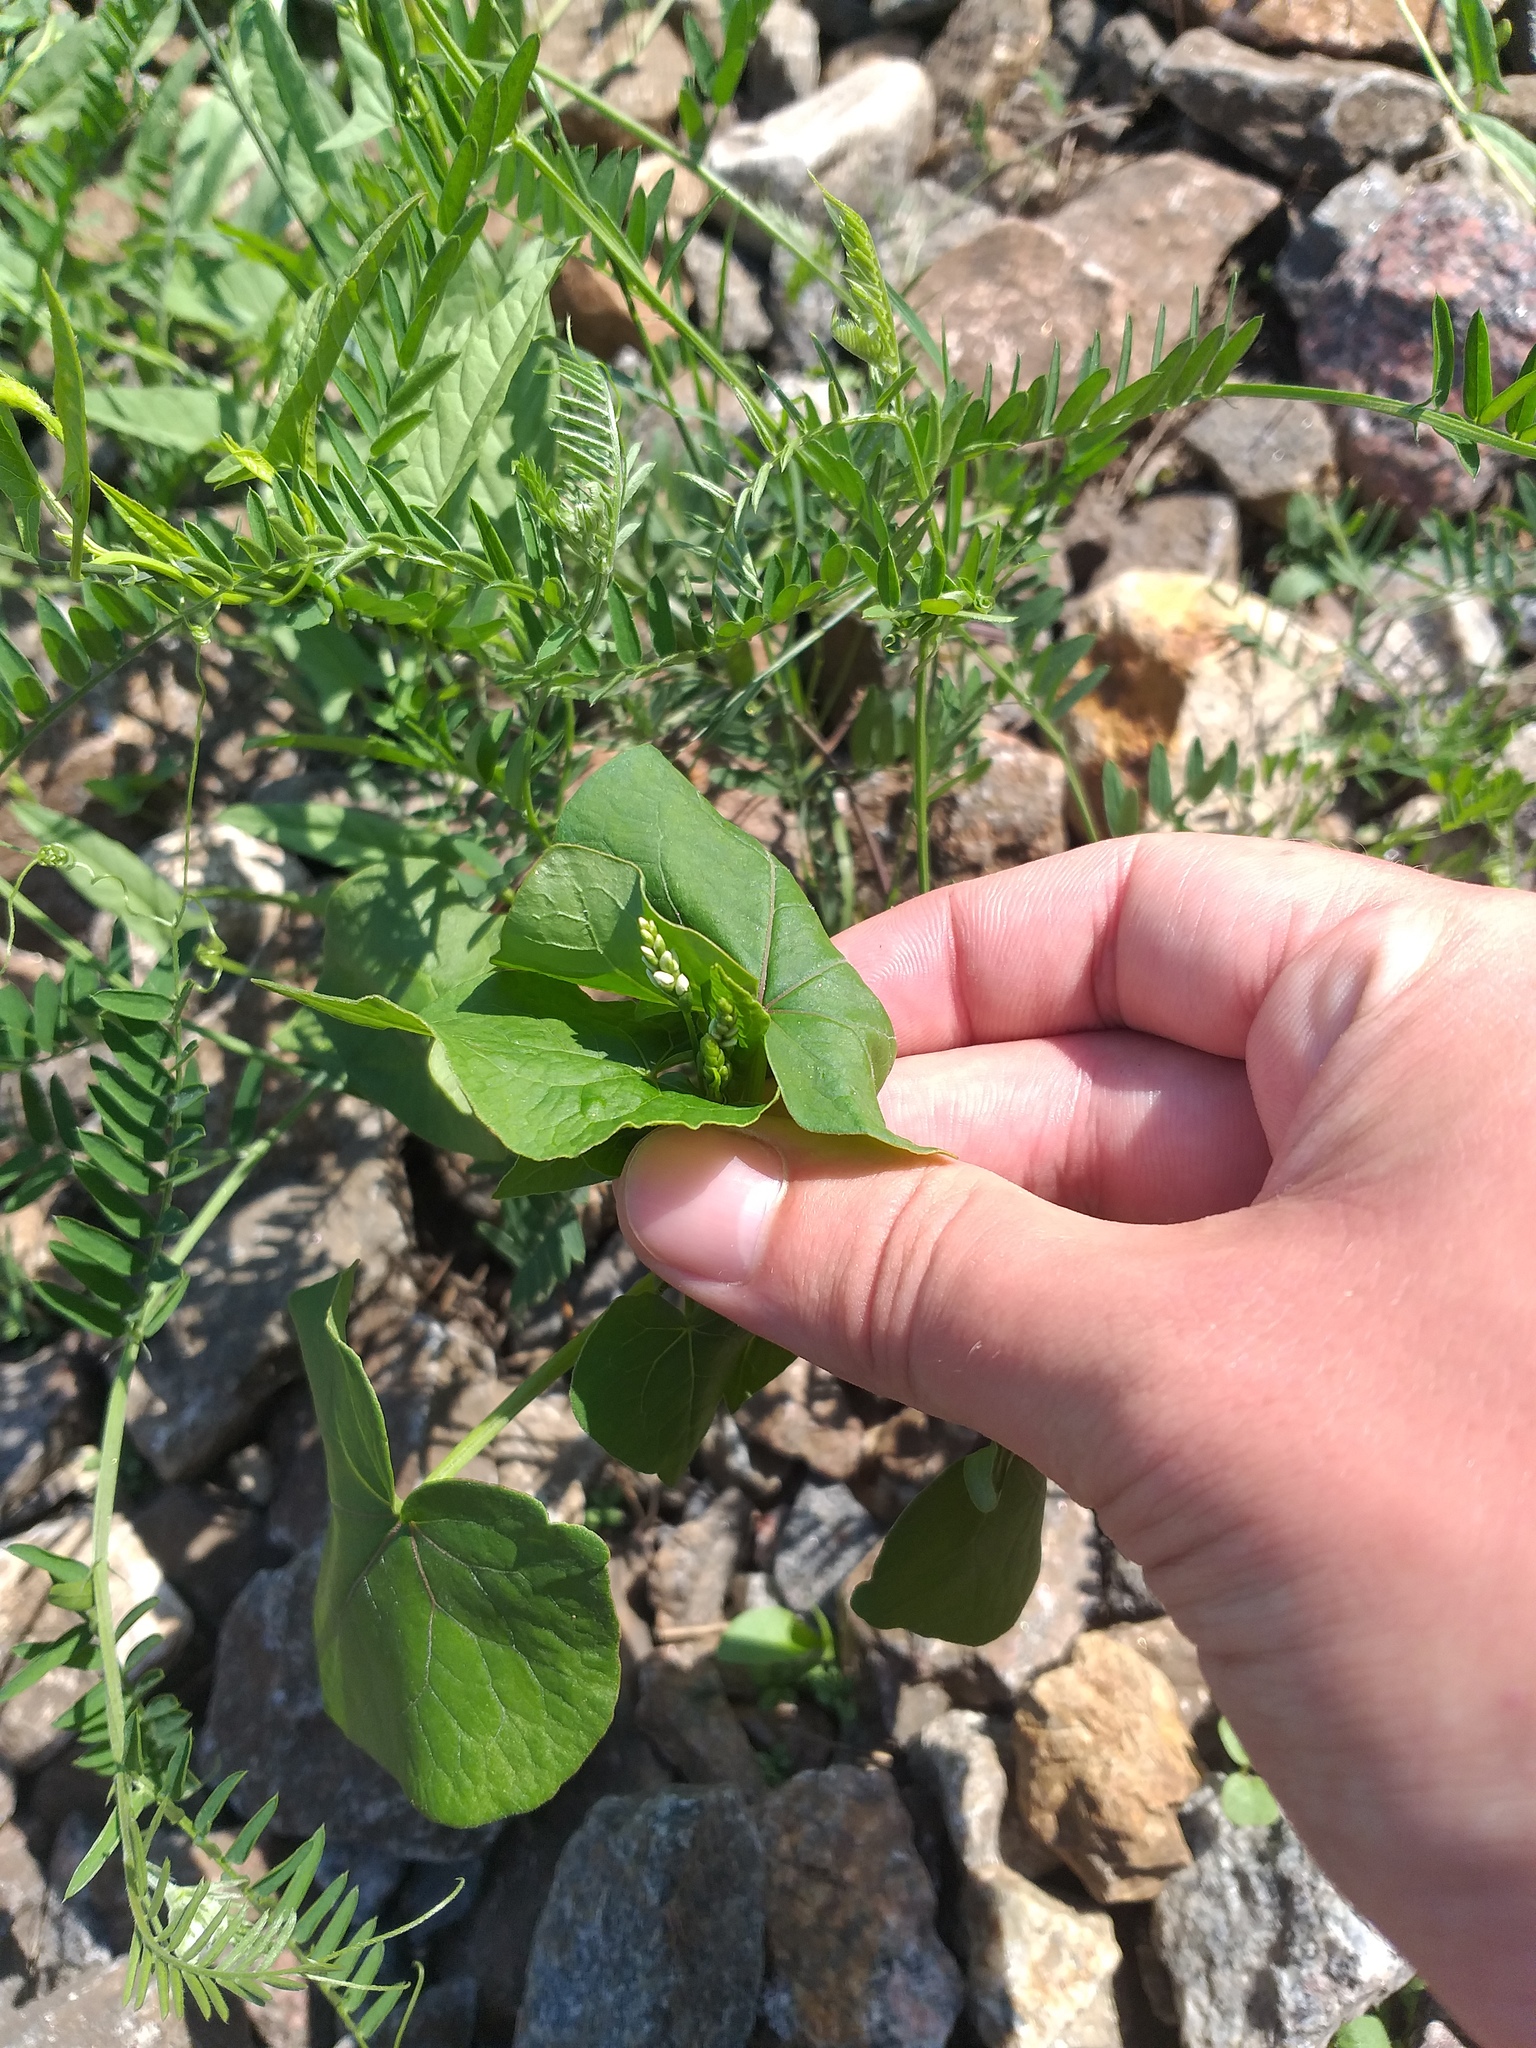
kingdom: Plantae
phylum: Tracheophyta
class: Magnoliopsida
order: Caryophyllales
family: Polygonaceae
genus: Fagopyrum
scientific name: Fagopyrum esculentum
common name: Buckwheat
